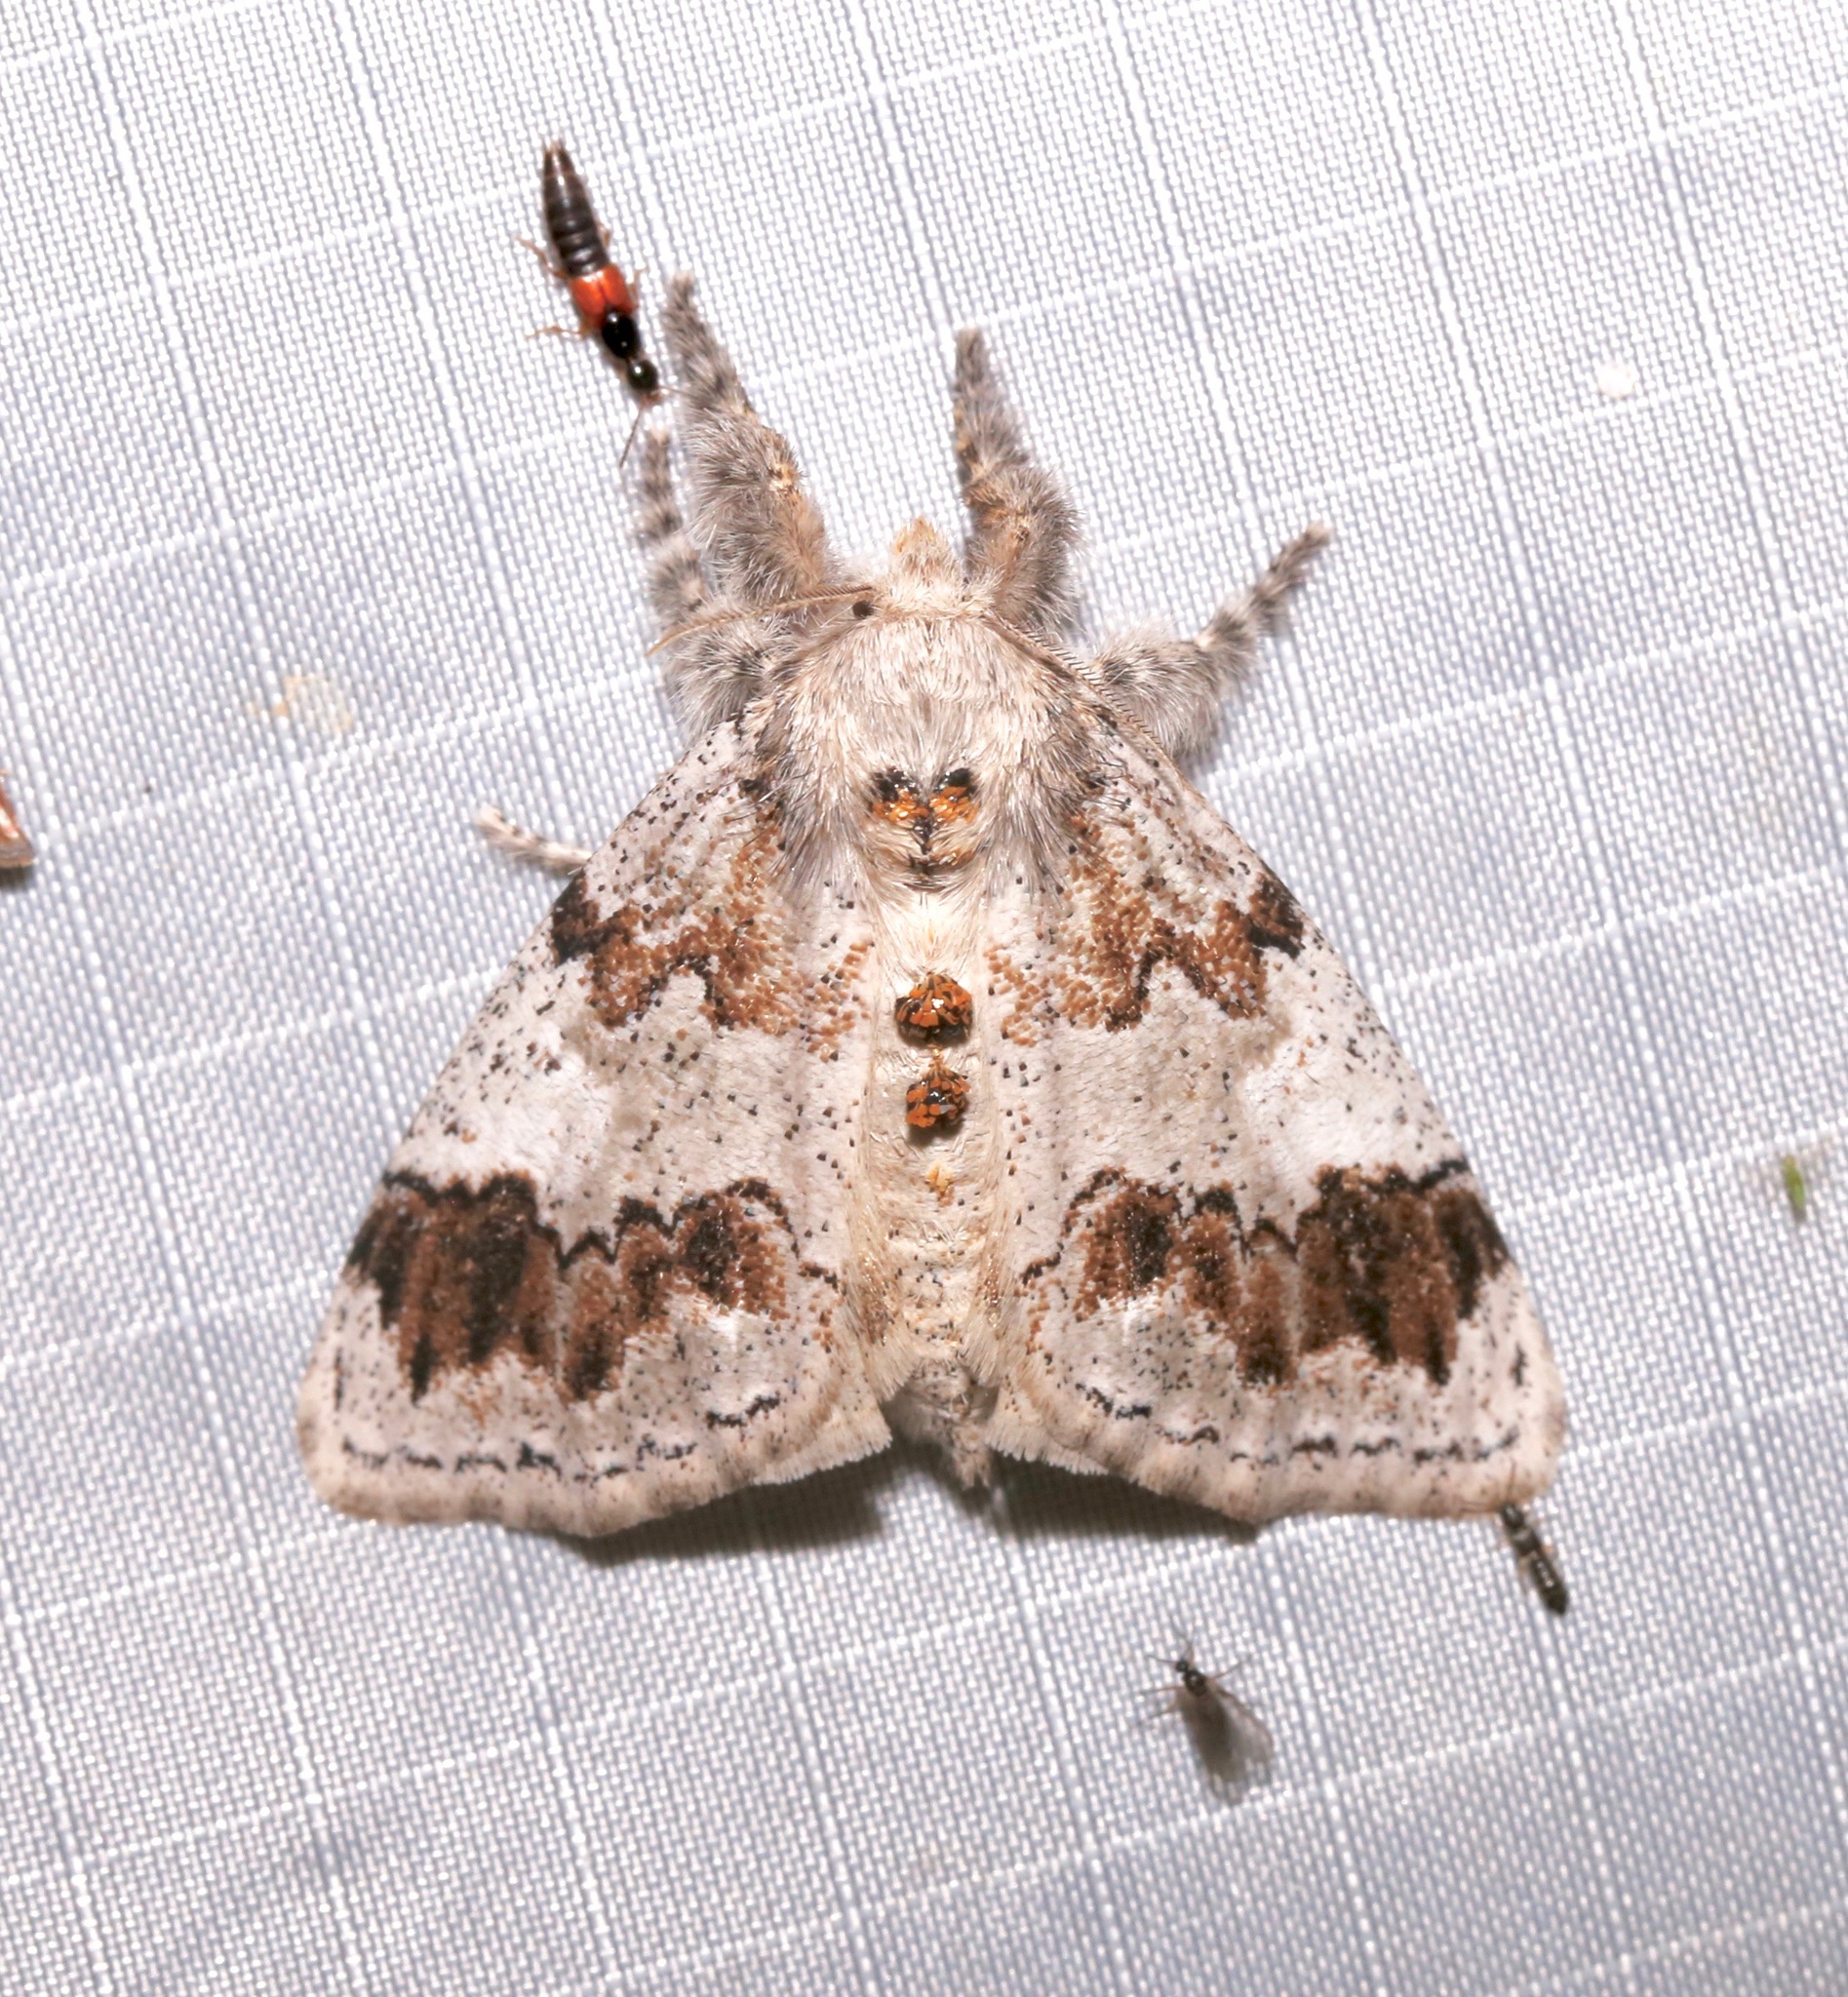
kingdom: Animalia
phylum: Arthropoda
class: Insecta
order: Lepidoptera
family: Erebidae
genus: Dasychira
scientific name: Dasychira leucophaea
